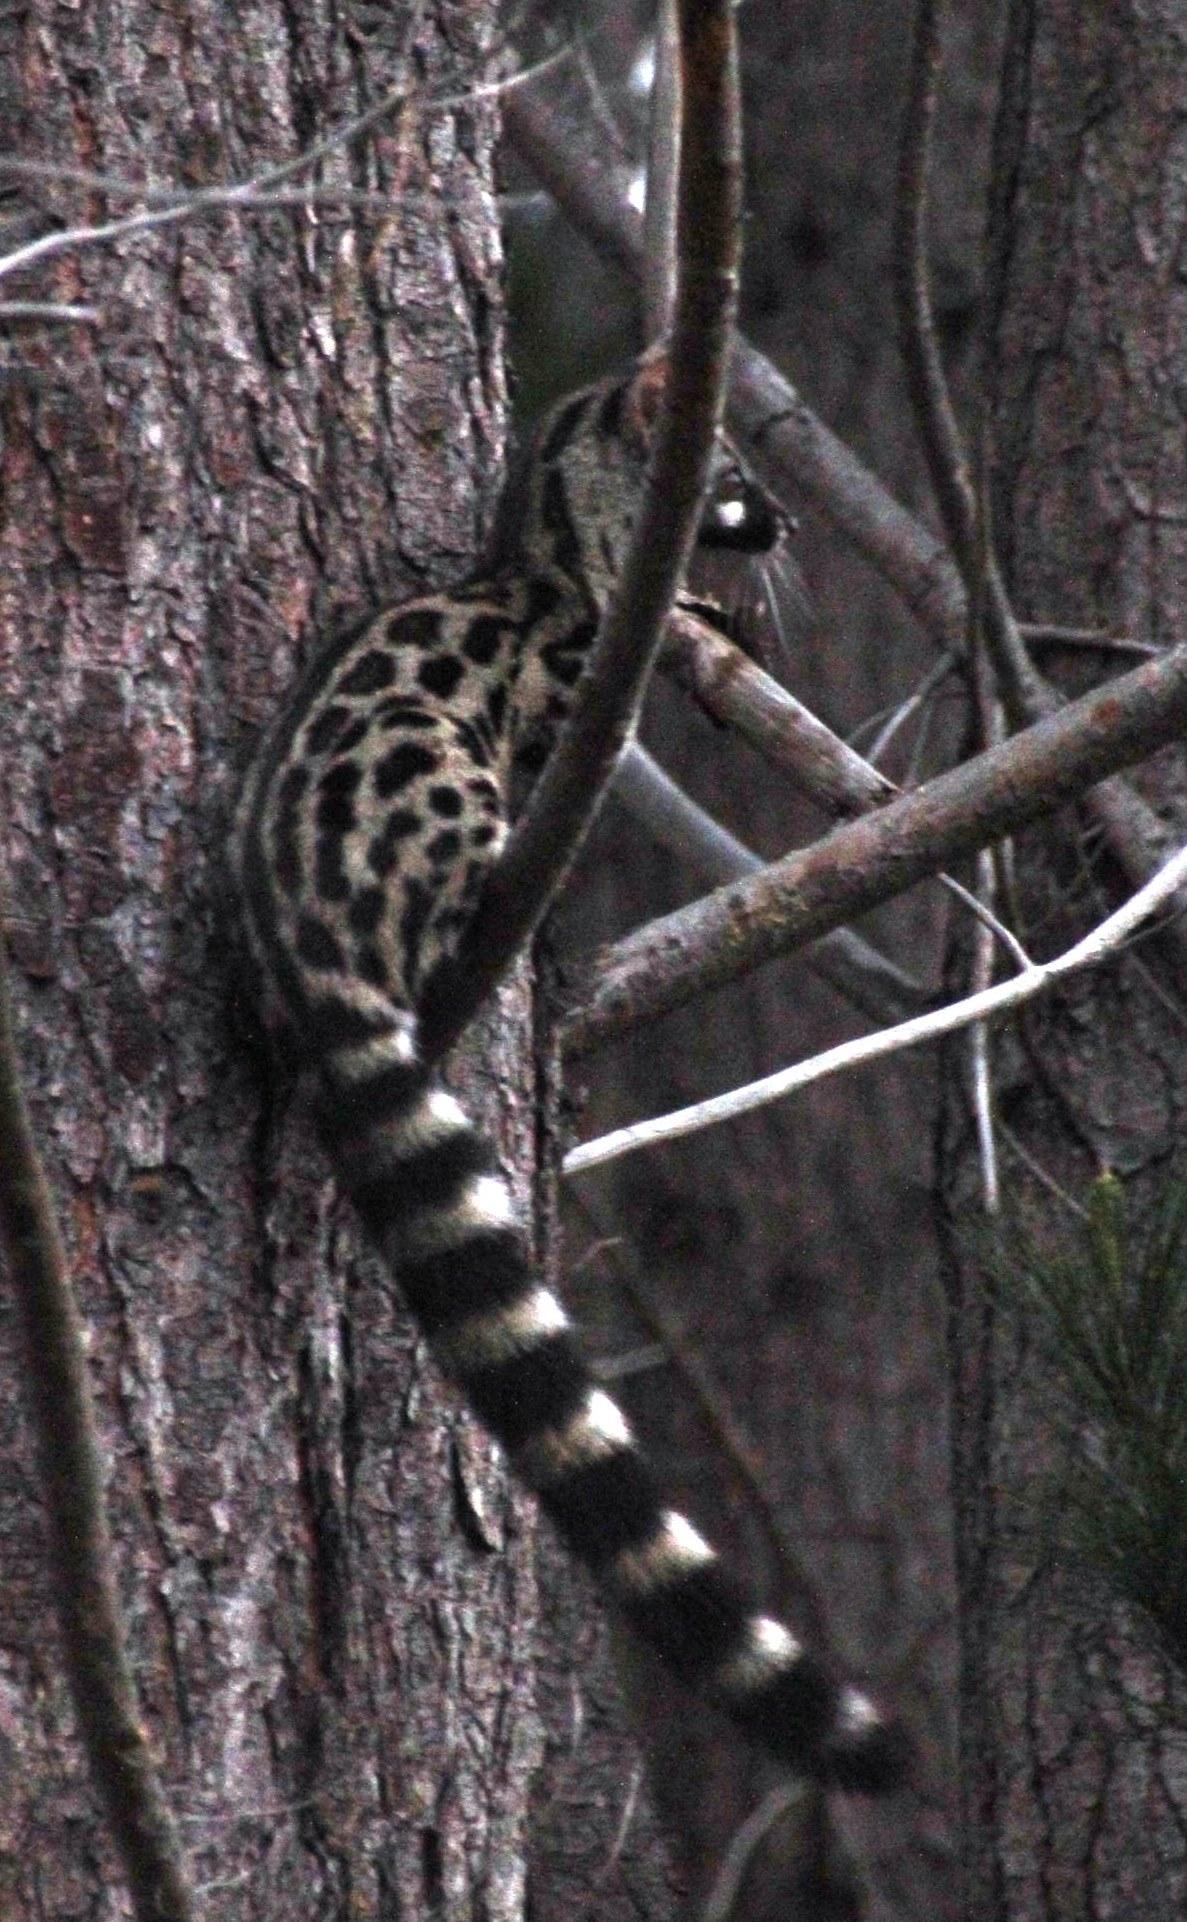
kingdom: Animalia
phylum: Chordata
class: Mammalia
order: Carnivora
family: Viverridae
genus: Genetta
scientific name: Genetta tigrina
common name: Cape genet
